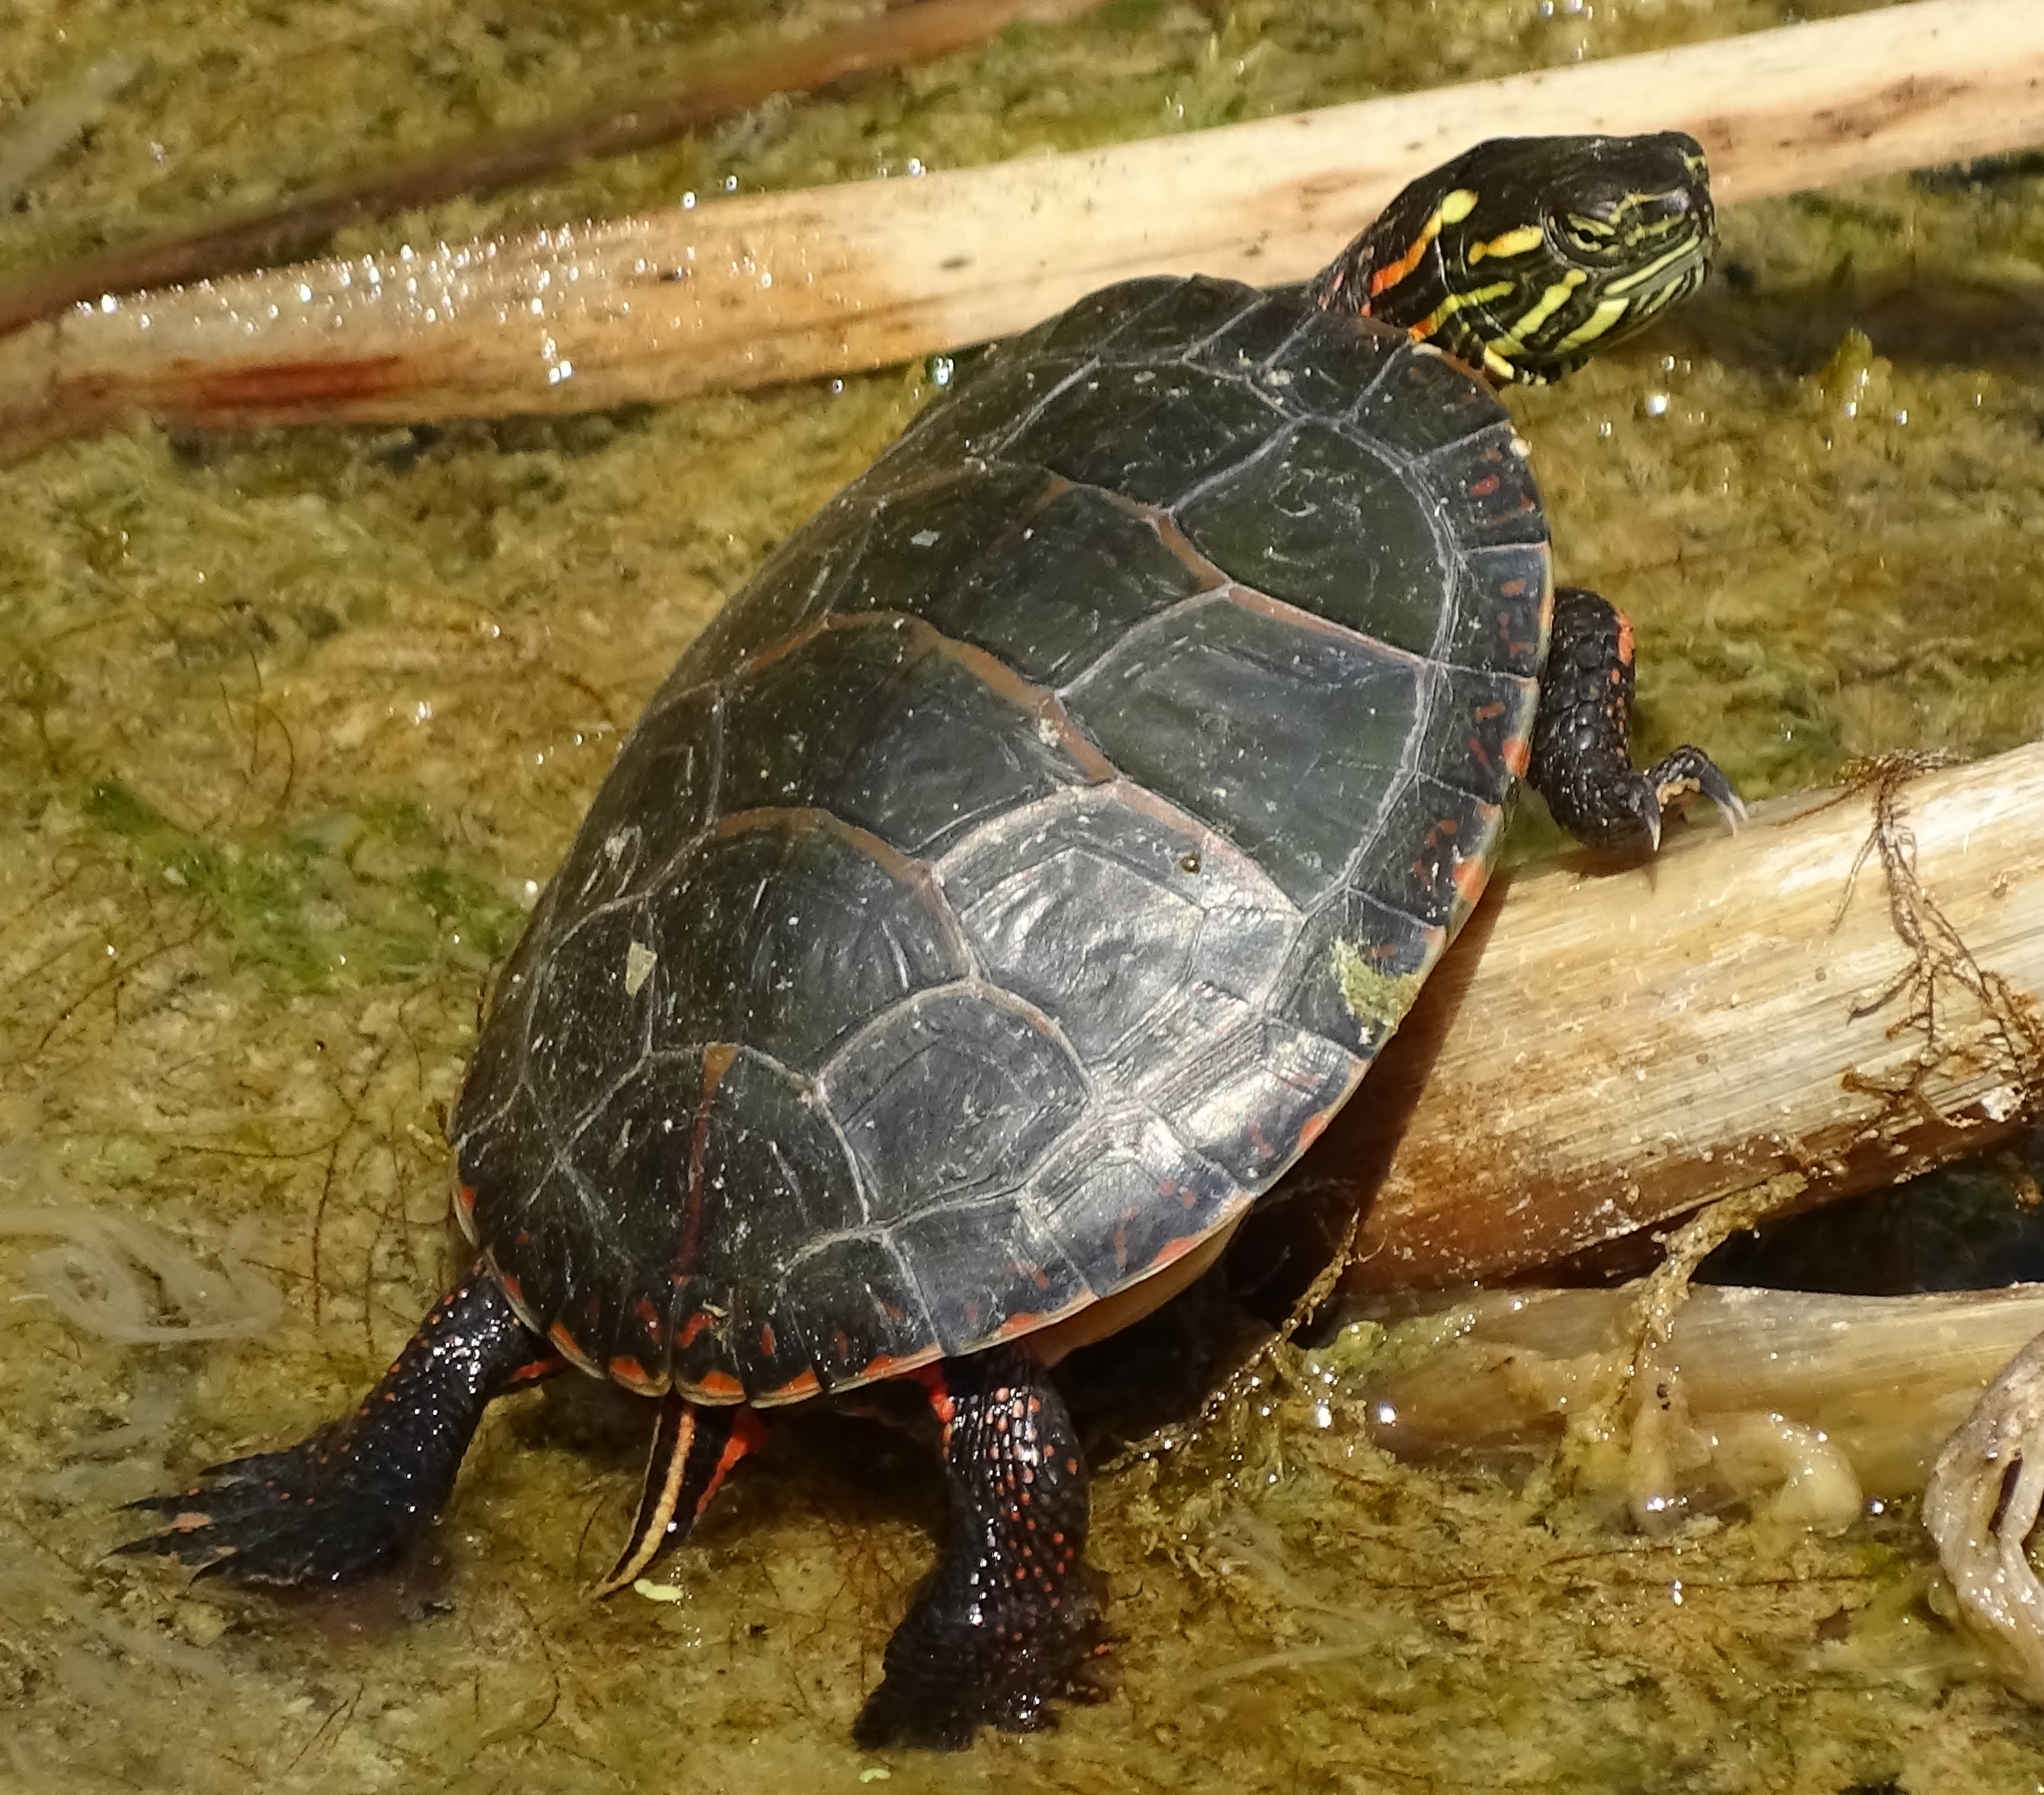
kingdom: Animalia
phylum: Chordata
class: Testudines
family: Emydidae
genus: Chrysemys
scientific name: Chrysemys picta
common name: Painted turtle
